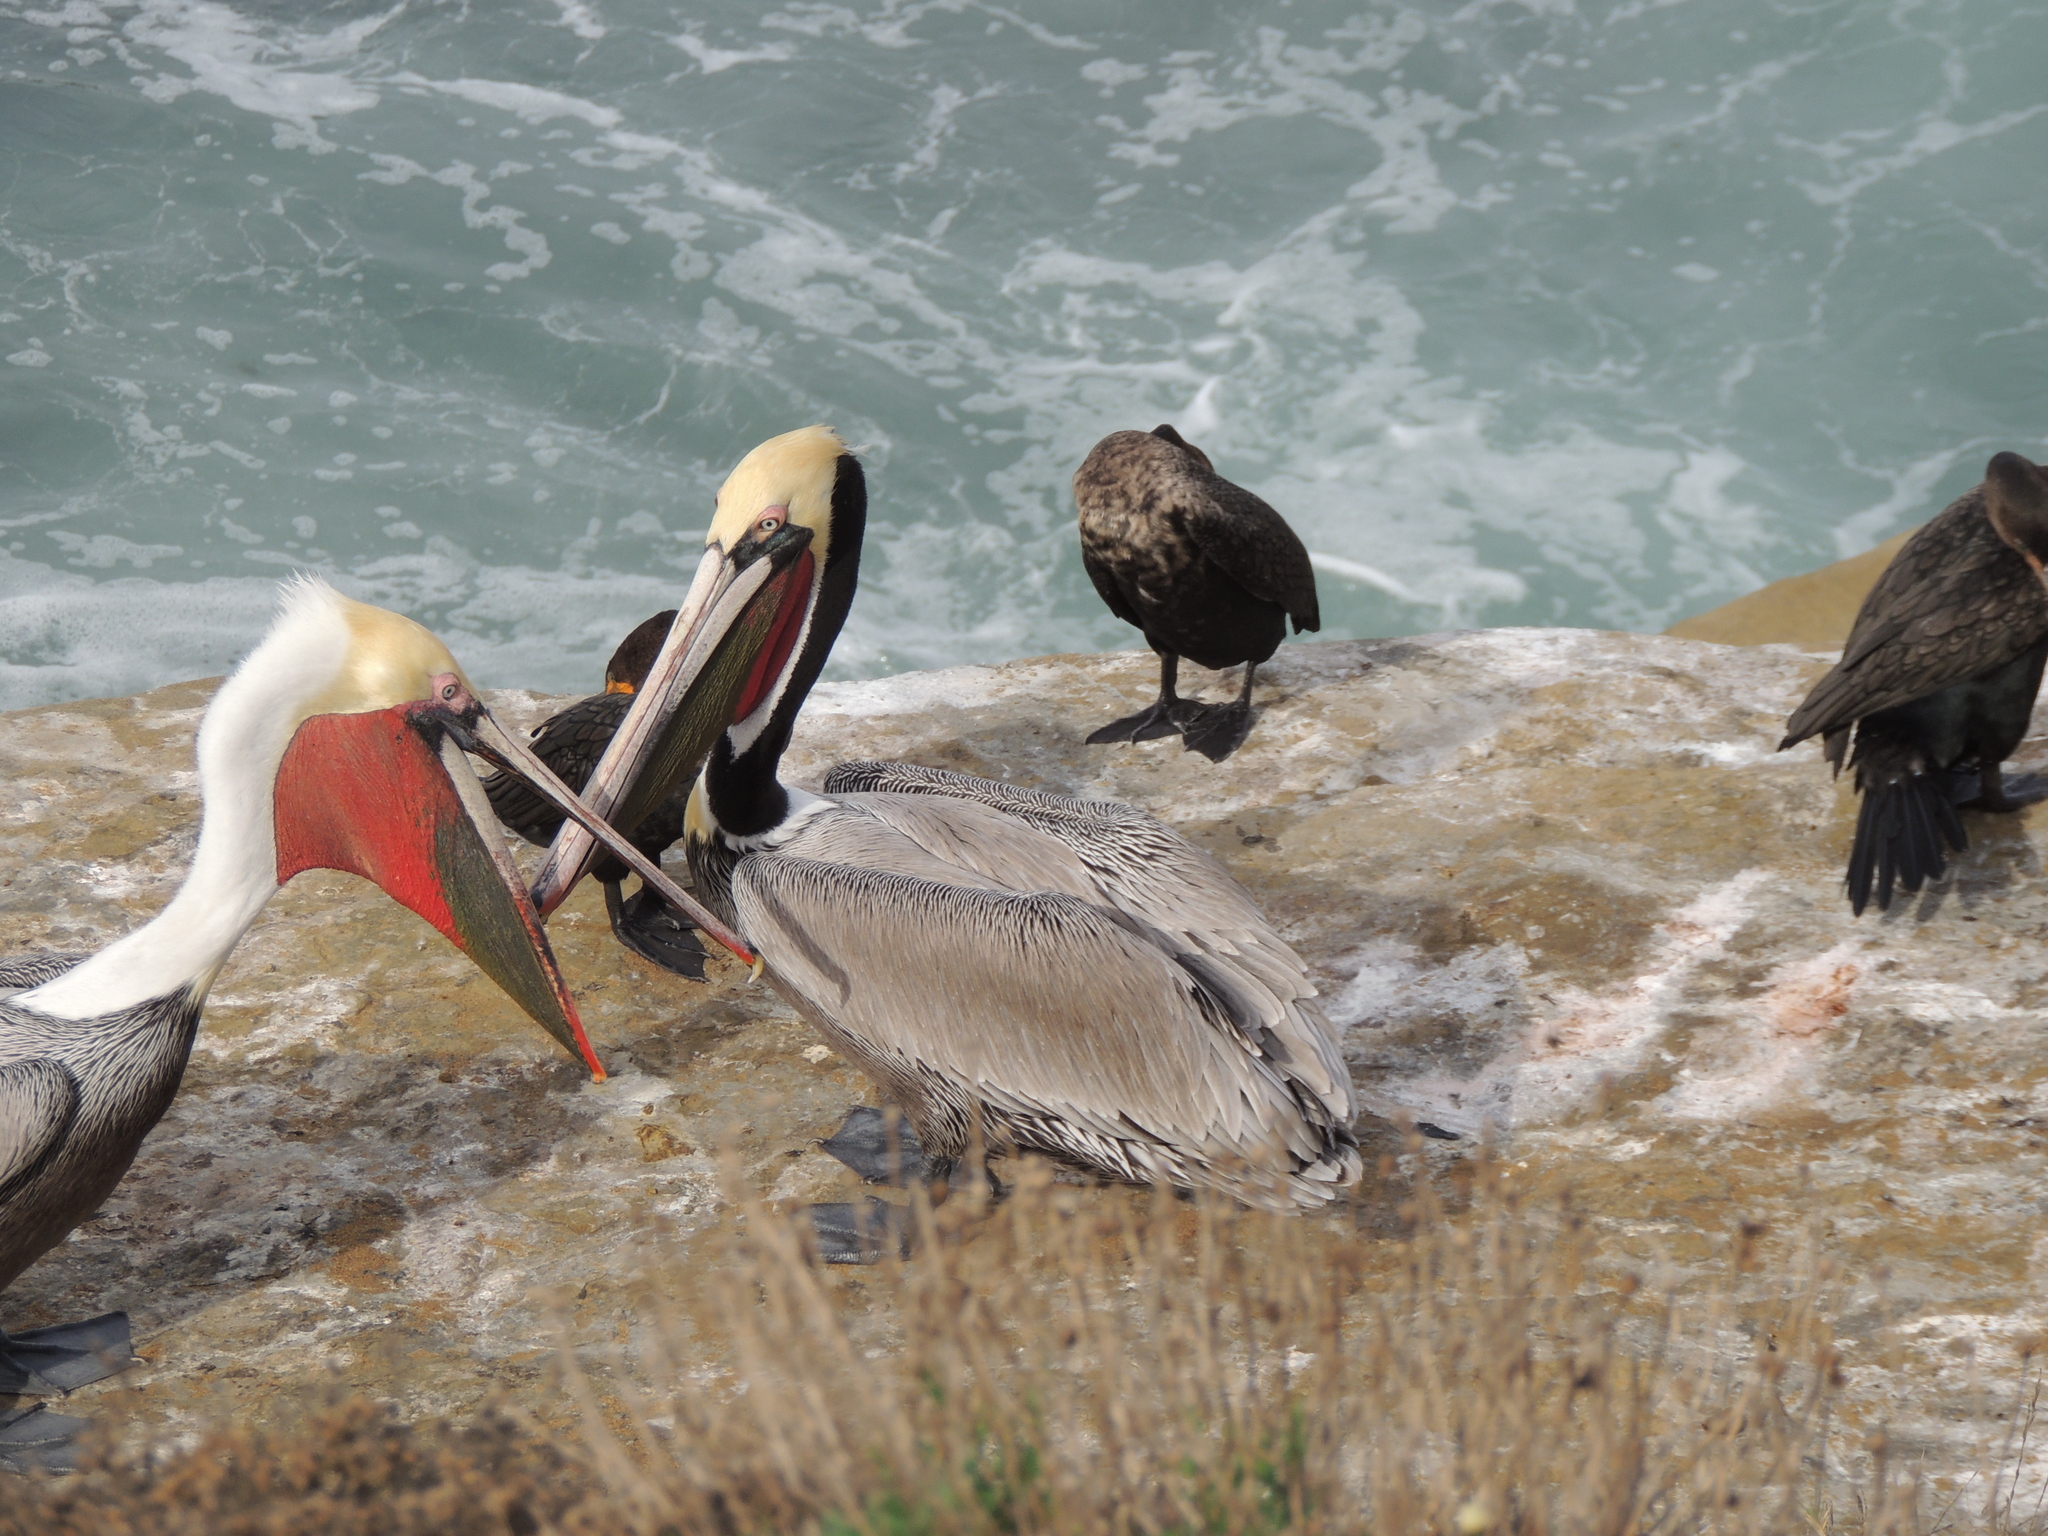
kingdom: Animalia
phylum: Chordata
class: Aves
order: Pelecaniformes
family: Pelecanidae
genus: Pelecanus
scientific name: Pelecanus occidentalis
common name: Brown pelican
